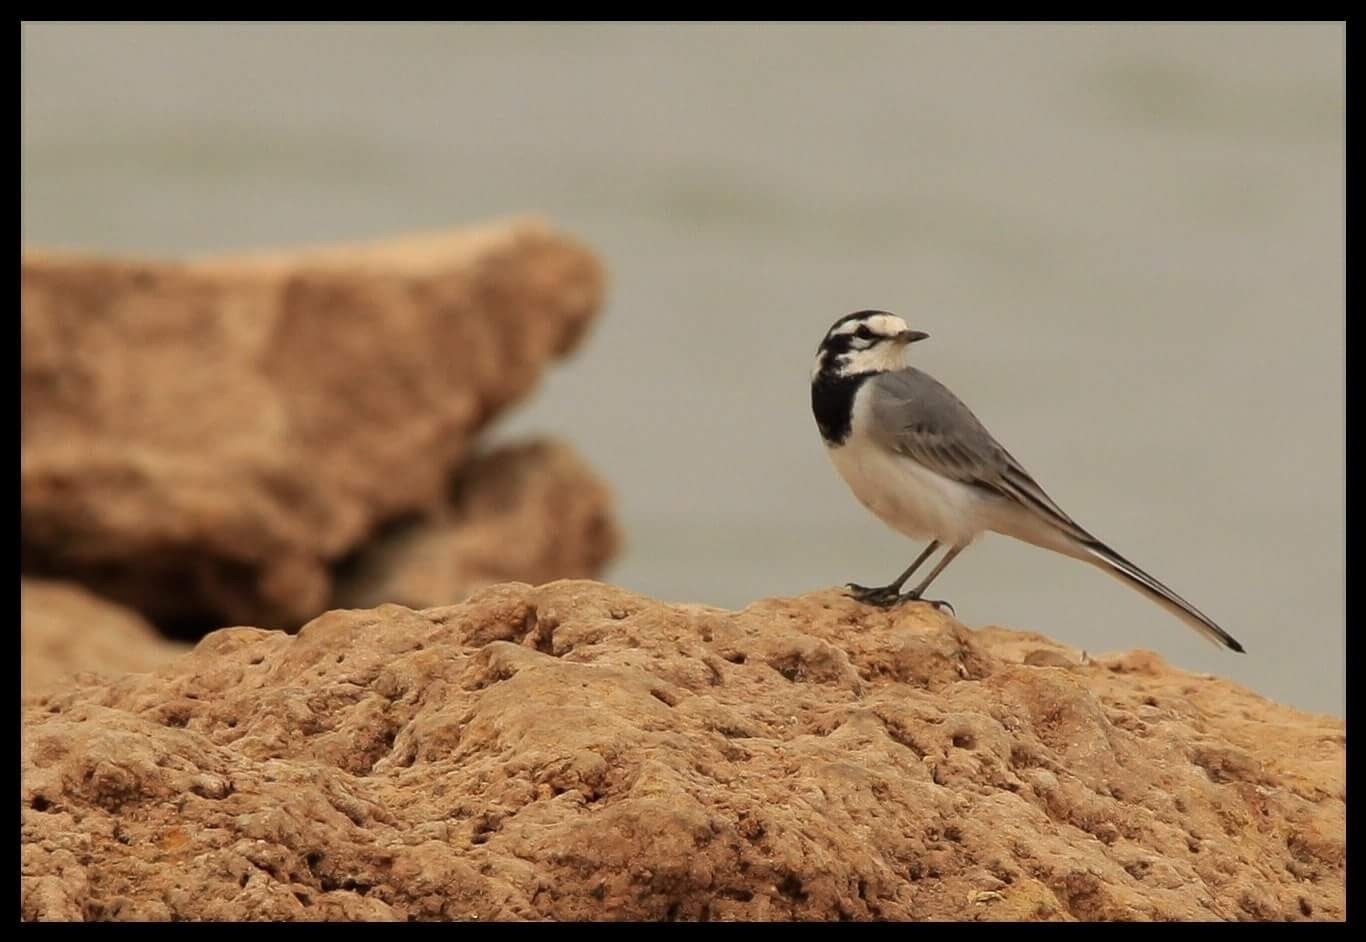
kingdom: Animalia
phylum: Chordata
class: Aves
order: Passeriformes
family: Motacillidae
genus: Motacilla
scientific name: Motacilla alba
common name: White wagtail
